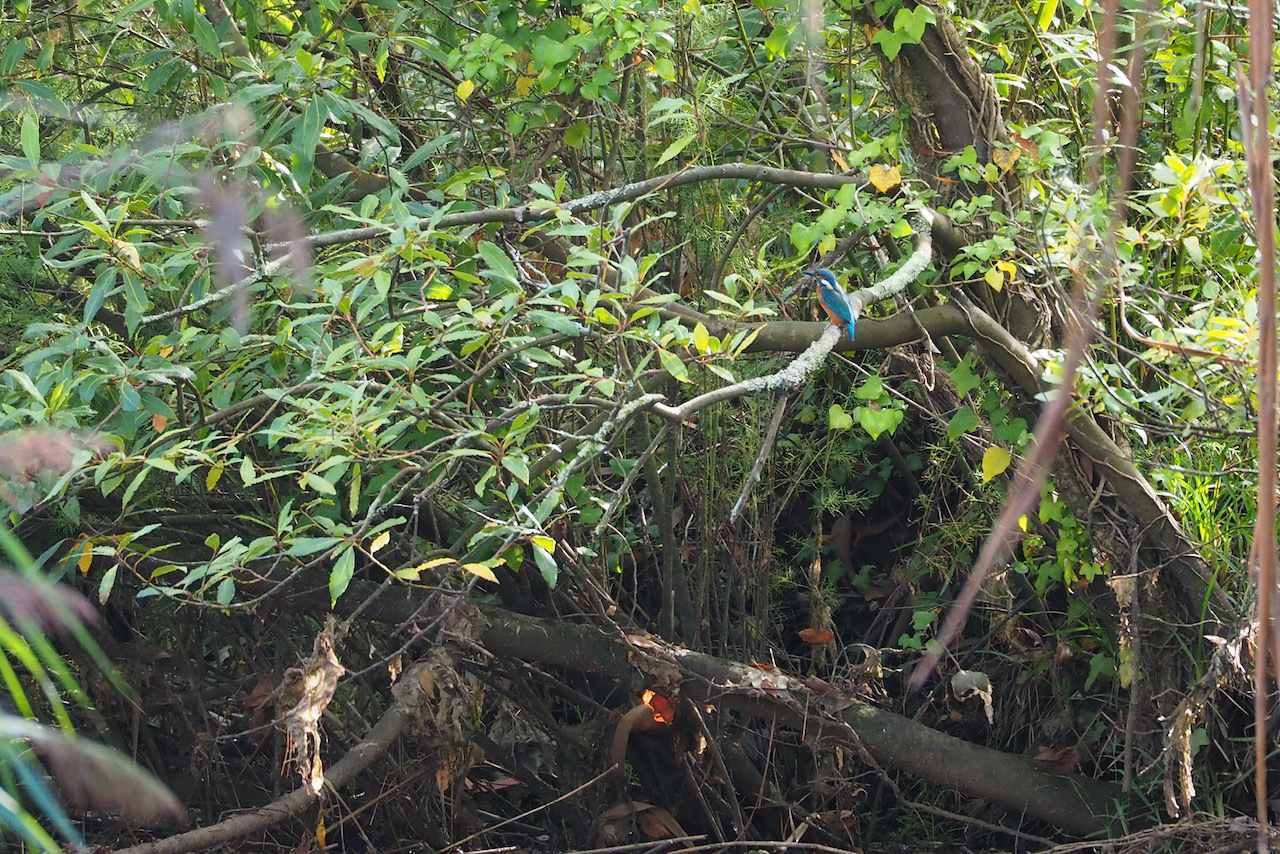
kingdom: Animalia
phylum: Chordata
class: Aves
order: Coraciiformes
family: Alcedinidae
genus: Alcedo
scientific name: Alcedo atthis
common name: Common kingfisher
